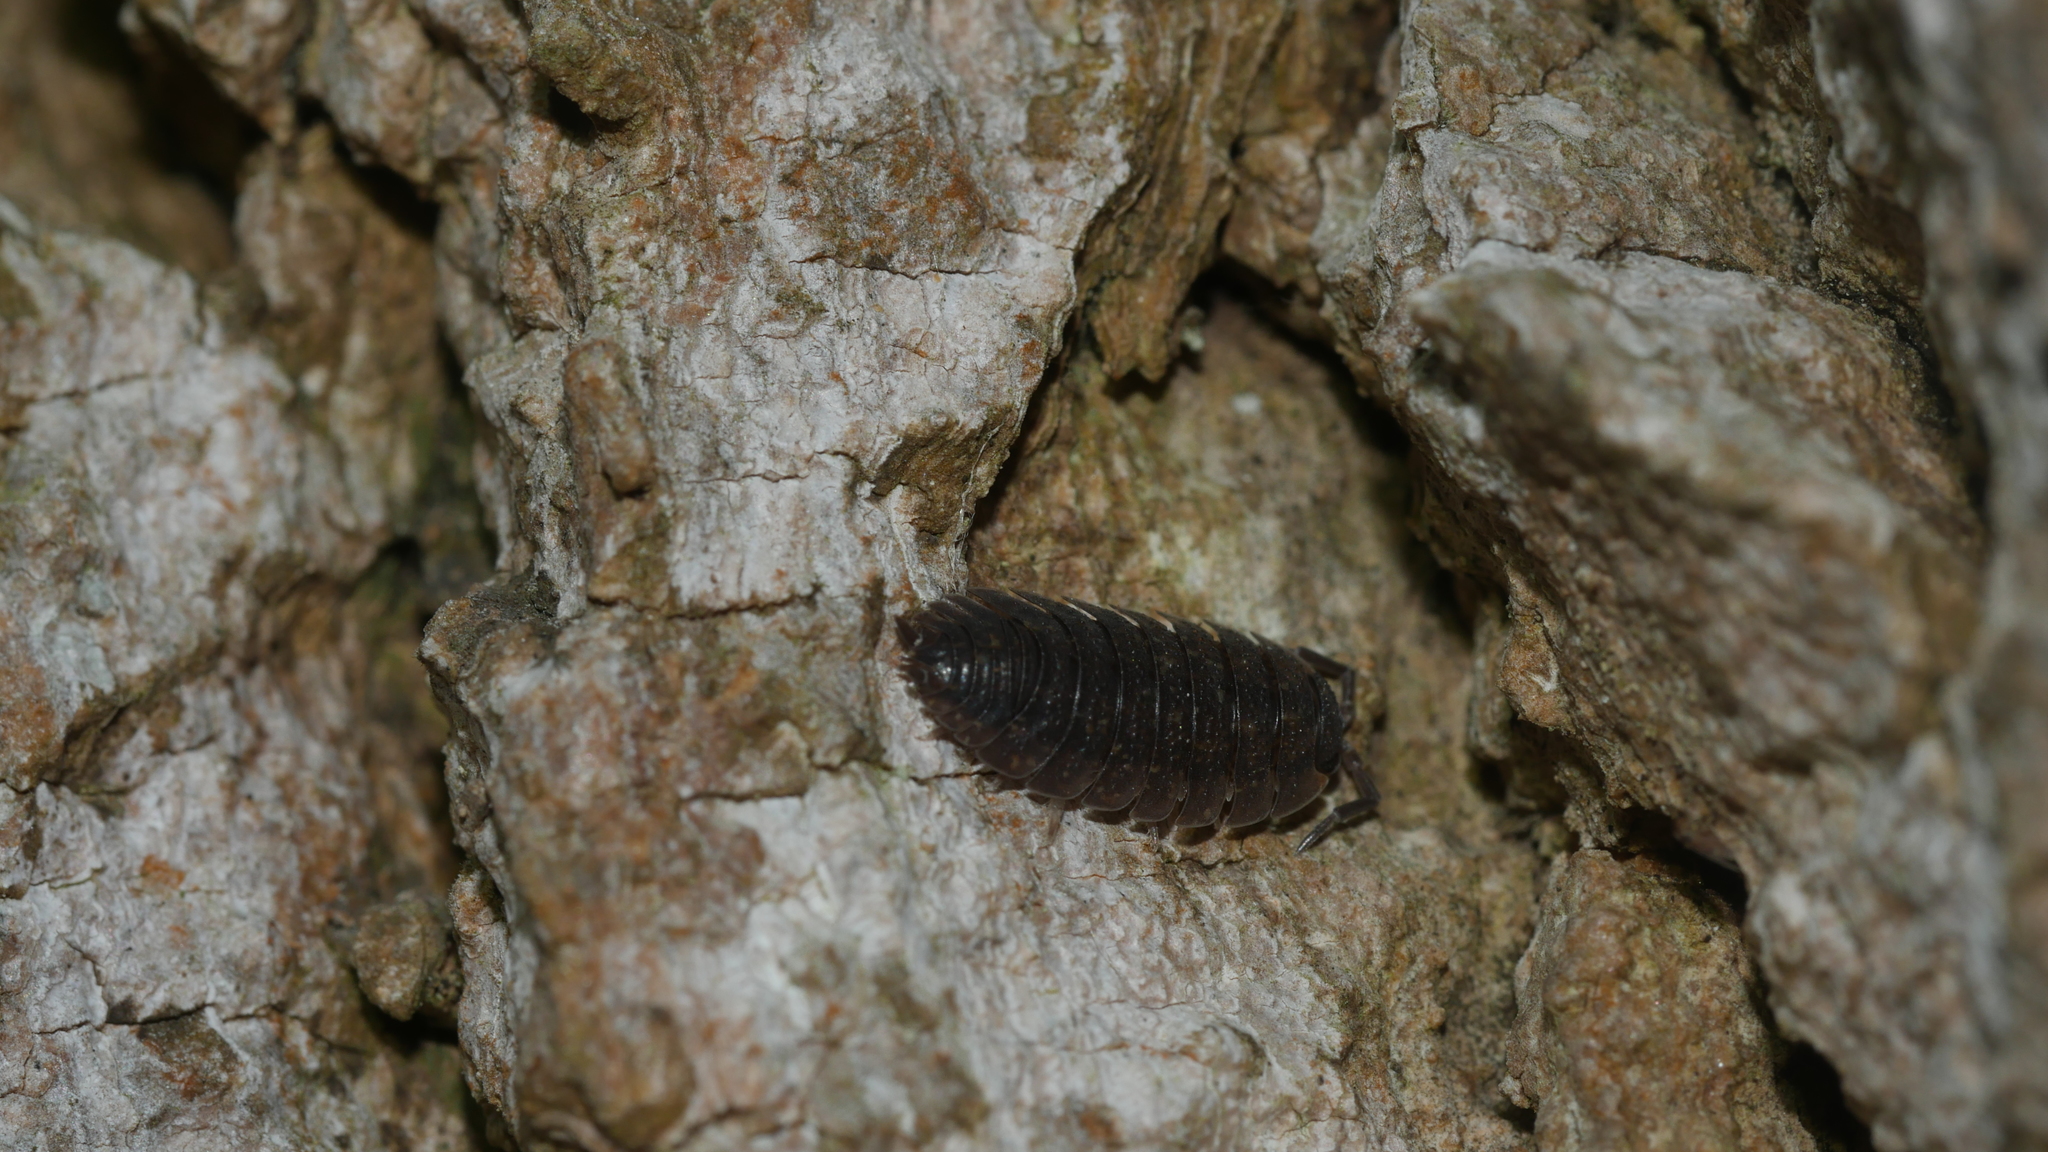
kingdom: Animalia
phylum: Arthropoda
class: Malacostraca
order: Isopoda
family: Porcellionidae
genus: Porcellio
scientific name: Porcellio scaber
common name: Common rough woodlouse
